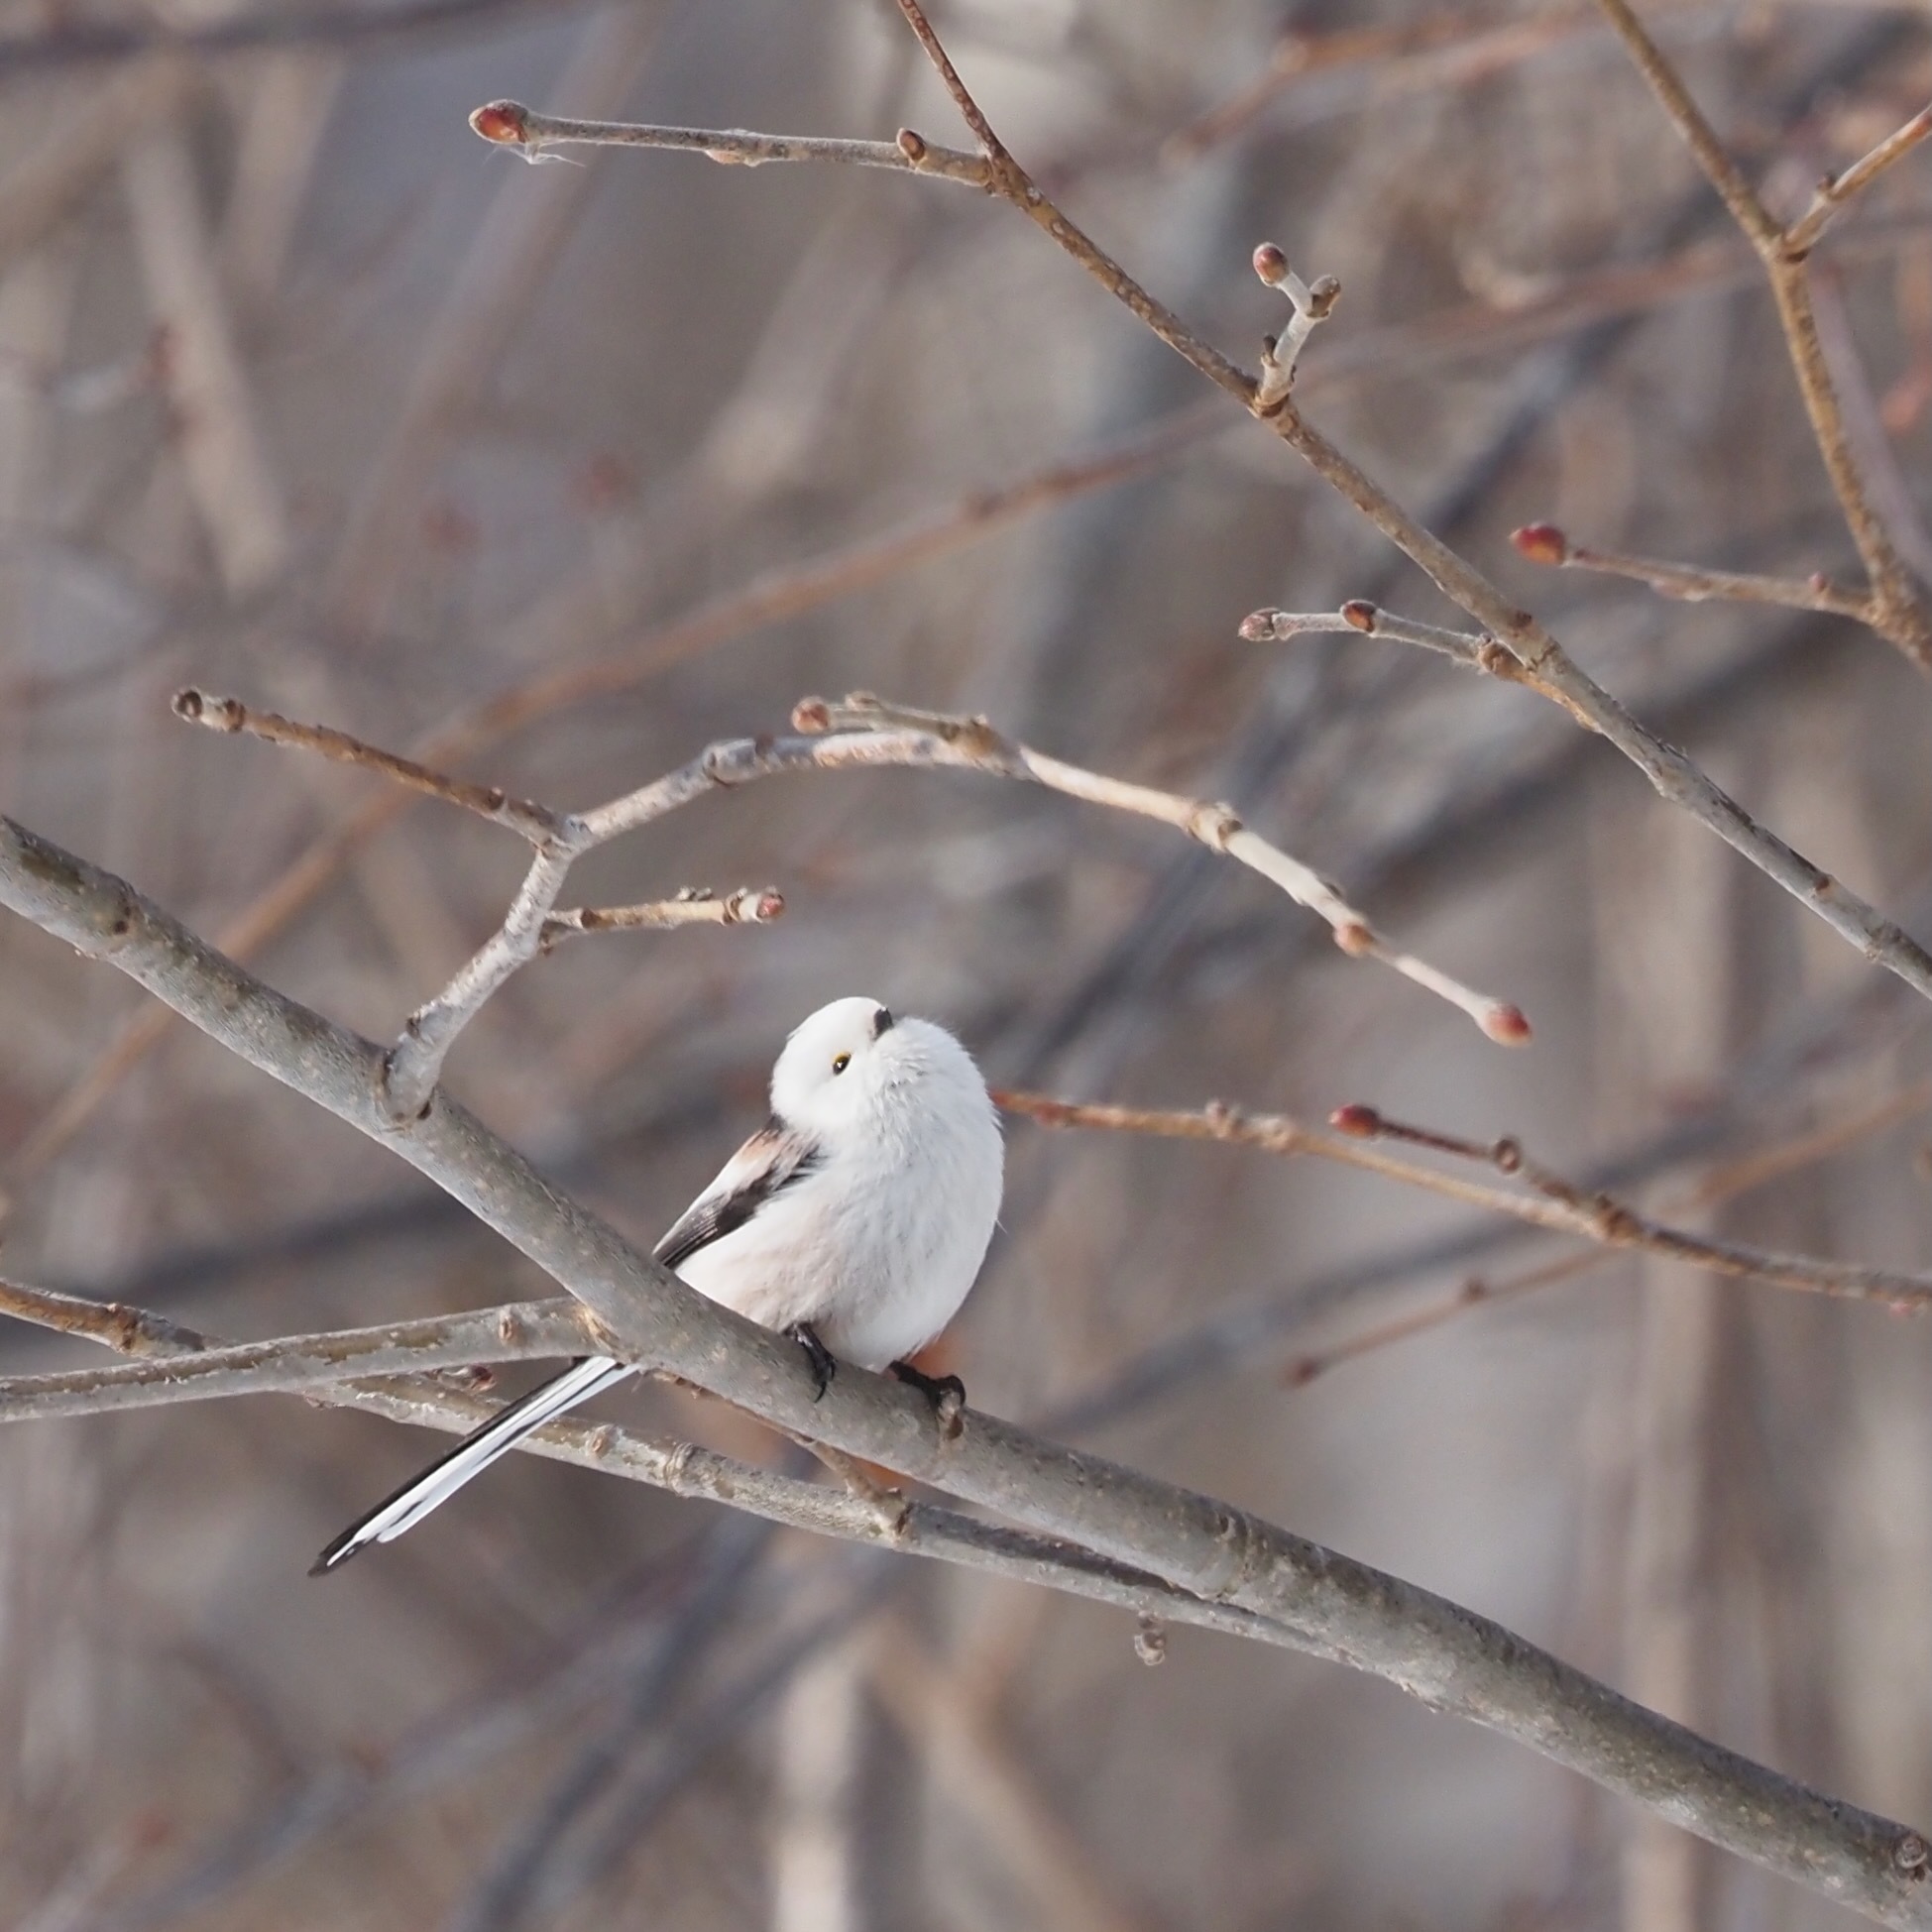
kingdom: Animalia
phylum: Chordata
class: Aves
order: Passeriformes
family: Aegithalidae
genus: Aegithalos
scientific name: Aegithalos caudatus
